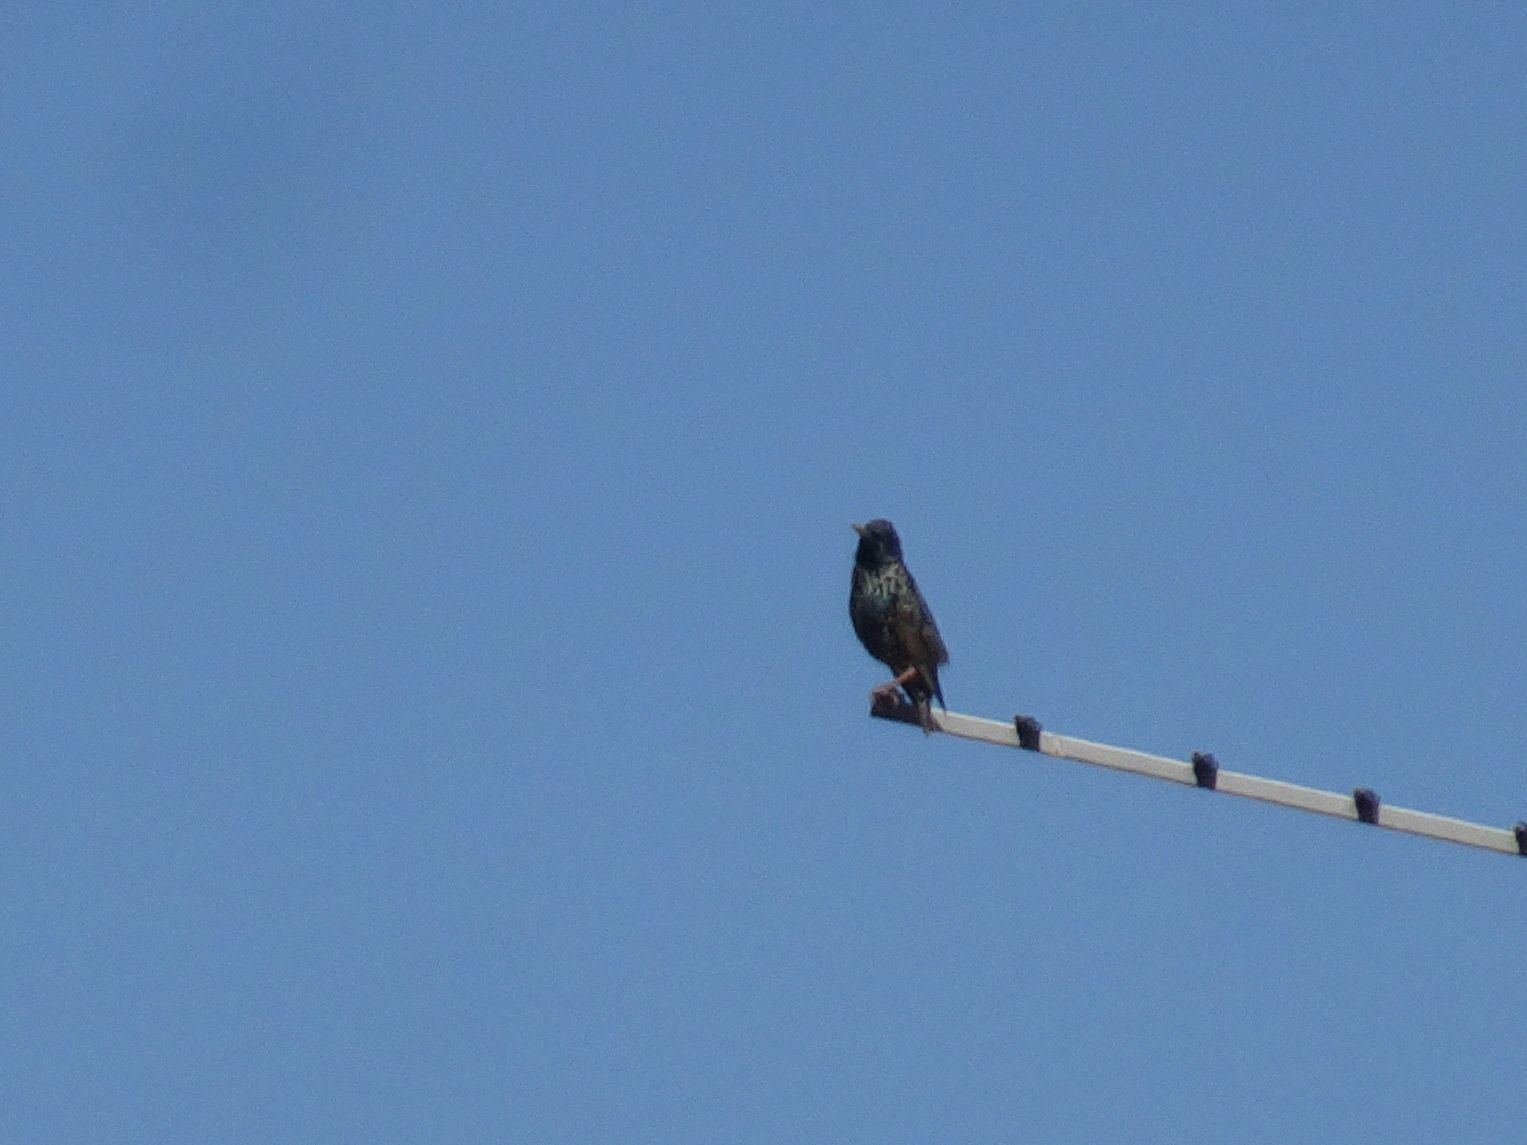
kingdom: Animalia
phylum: Chordata
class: Aves
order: Passeriformes
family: Sturnidae
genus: Sturnus
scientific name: Sturnus vulgaris
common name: Common starling
